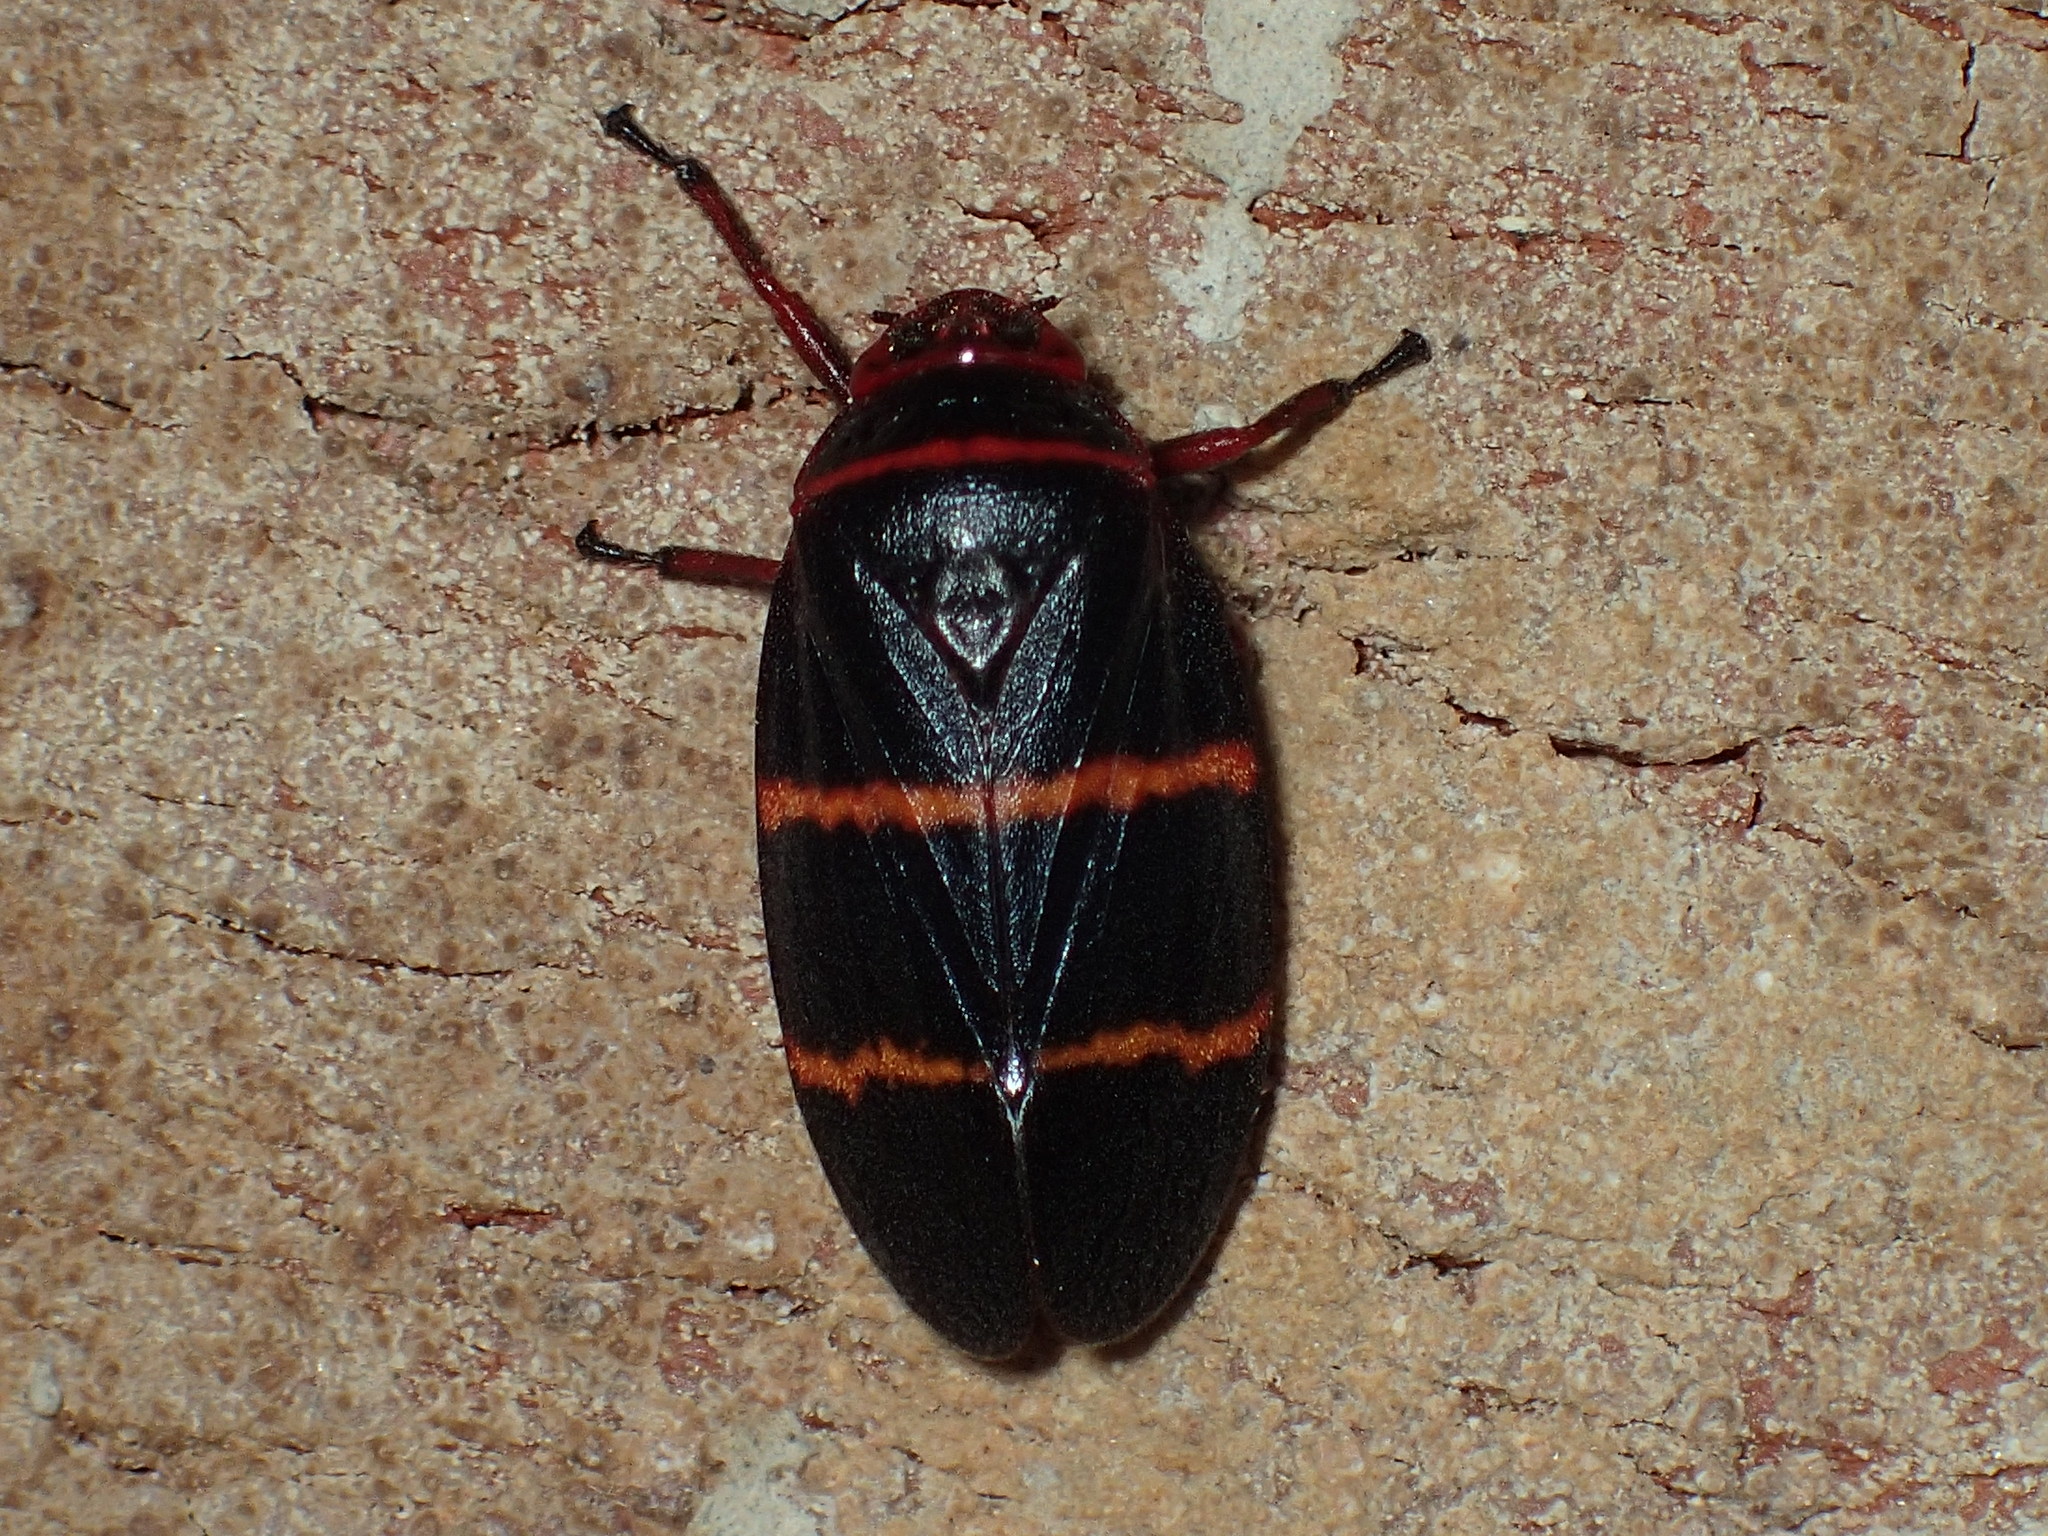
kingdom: Animalia
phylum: Arthropoda
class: Insecta
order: Hemiptera
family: Cercopidae
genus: Prosapia
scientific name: Prosapia bicincta
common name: Twolined spittlebug
